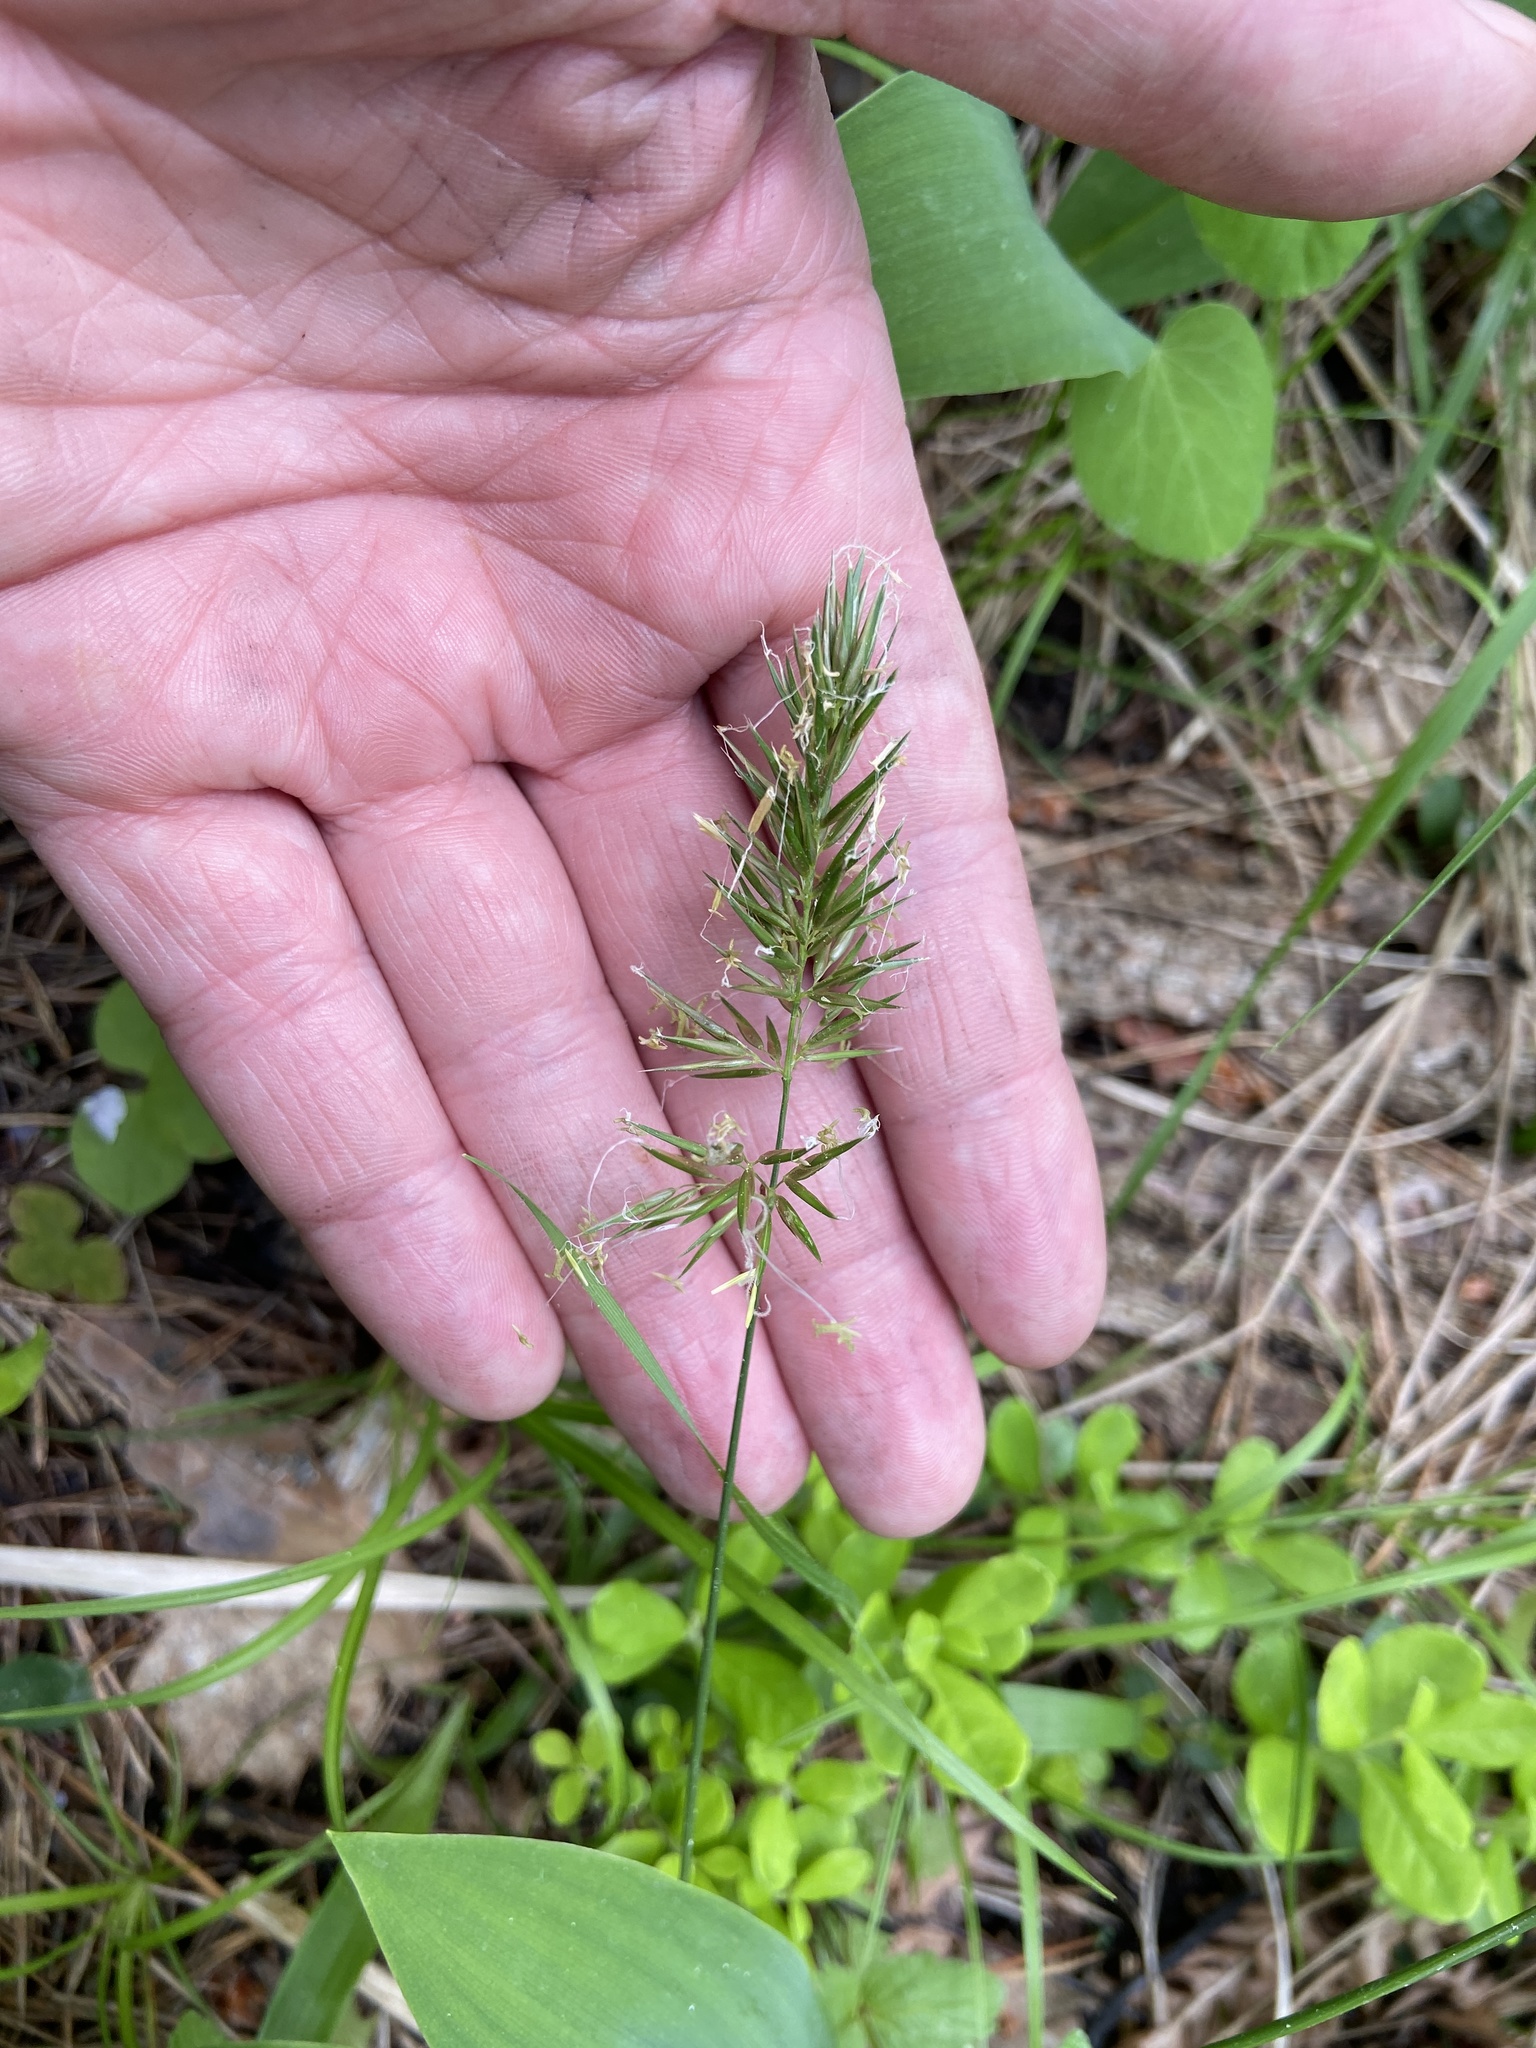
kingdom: Plantae
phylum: Tracheophyta
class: Liliopsida
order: Poales
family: Poaceae
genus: Anthoxanthum
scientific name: Anthoxanthum odoratum
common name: Sweet vernalgrass
